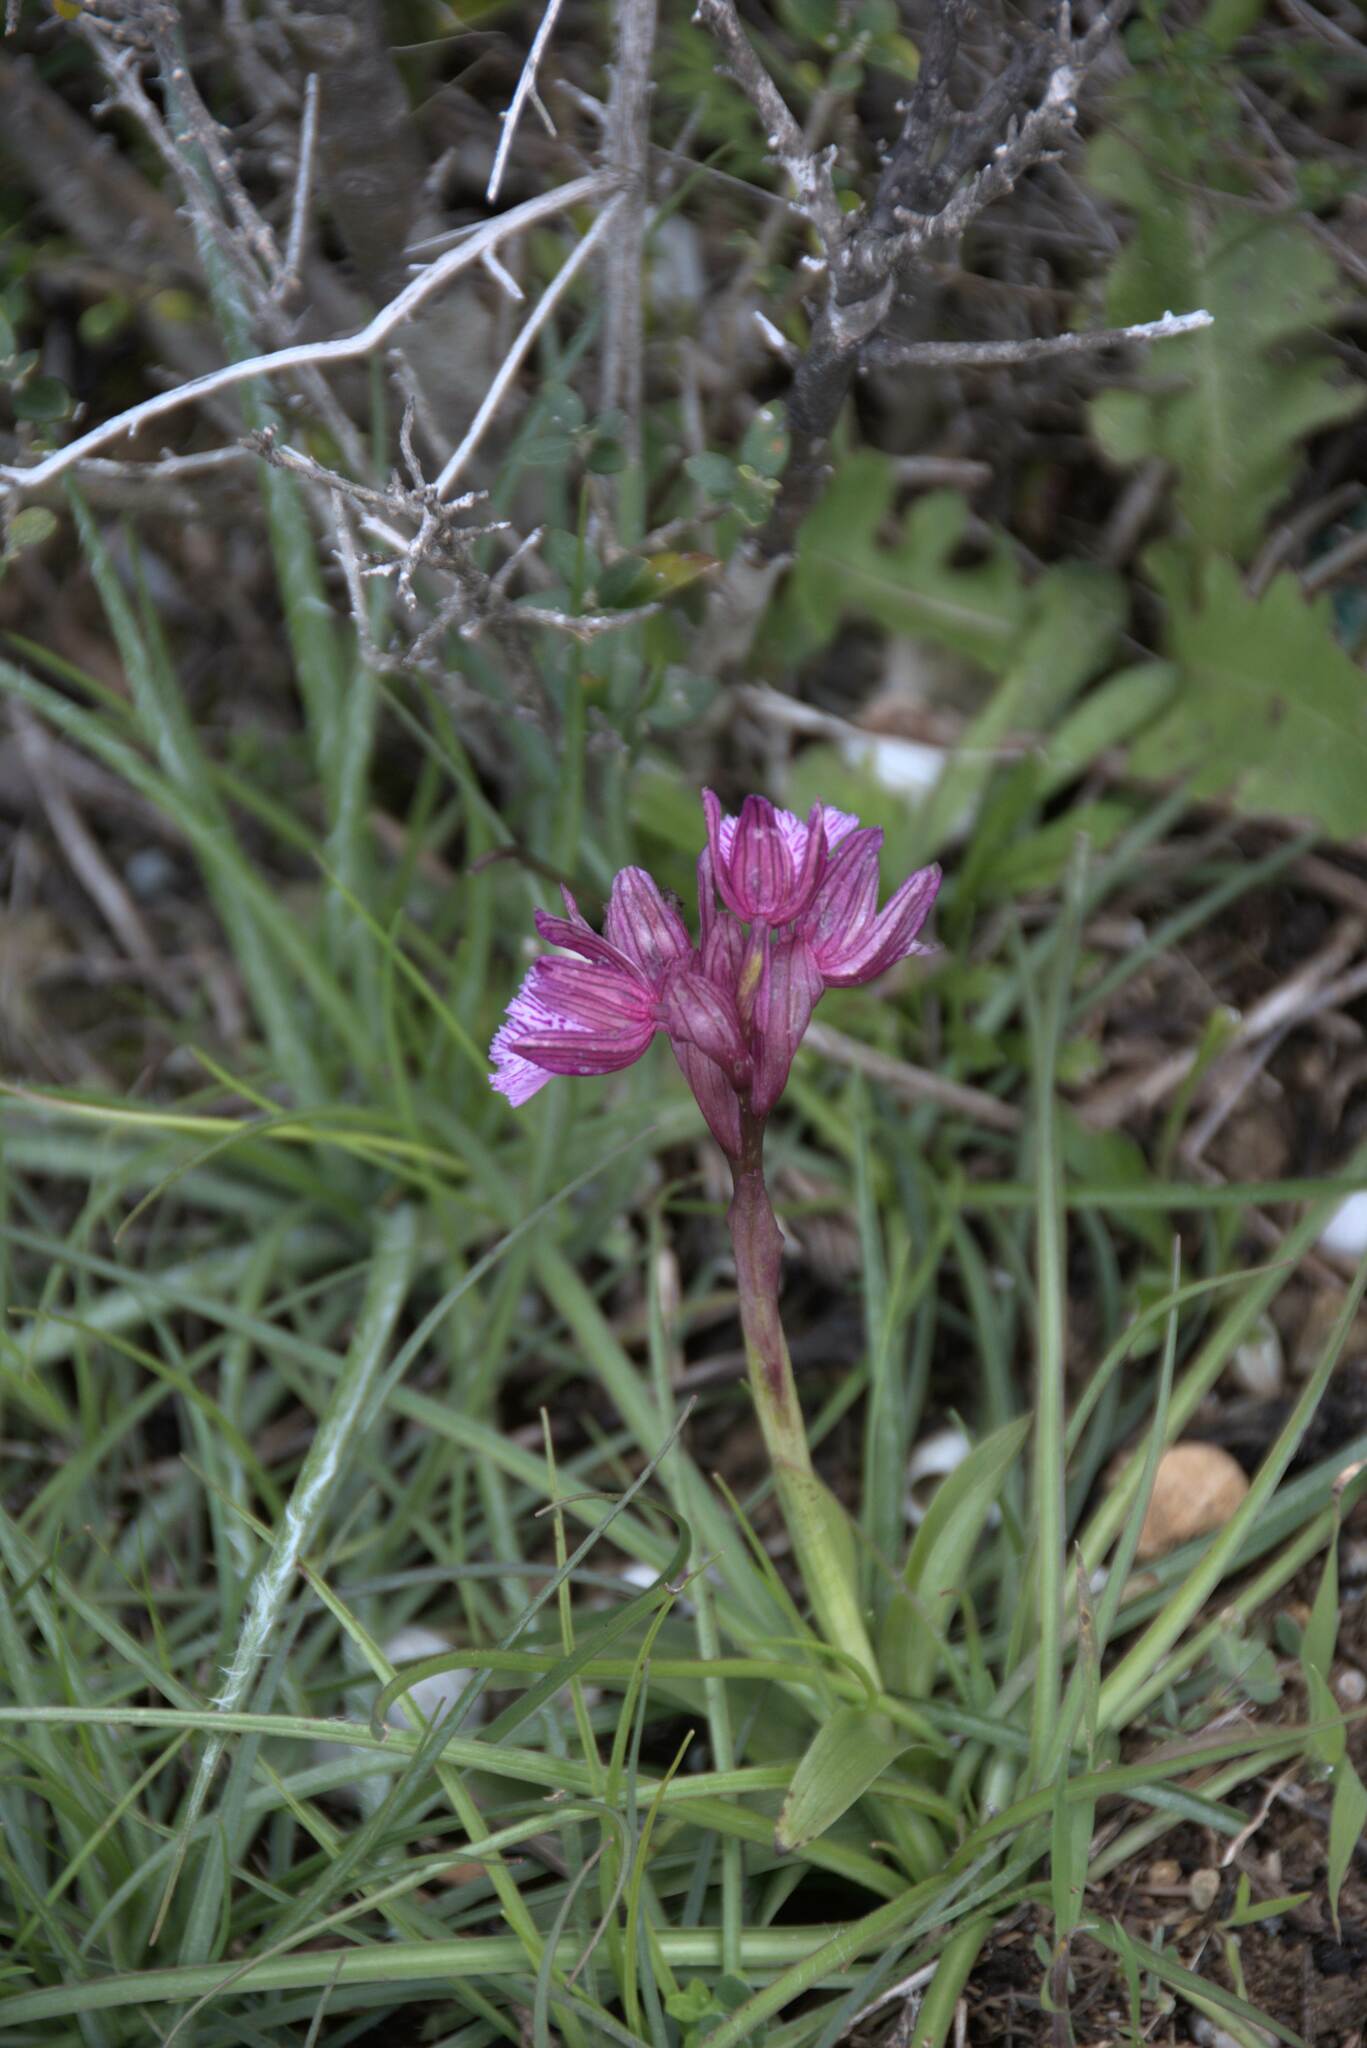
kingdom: Plantae
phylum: Tracheophyta
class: Liliopsida
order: Asparagales
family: Orchidaceae
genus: Anacamptis
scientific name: Anacamptis papilionacea
